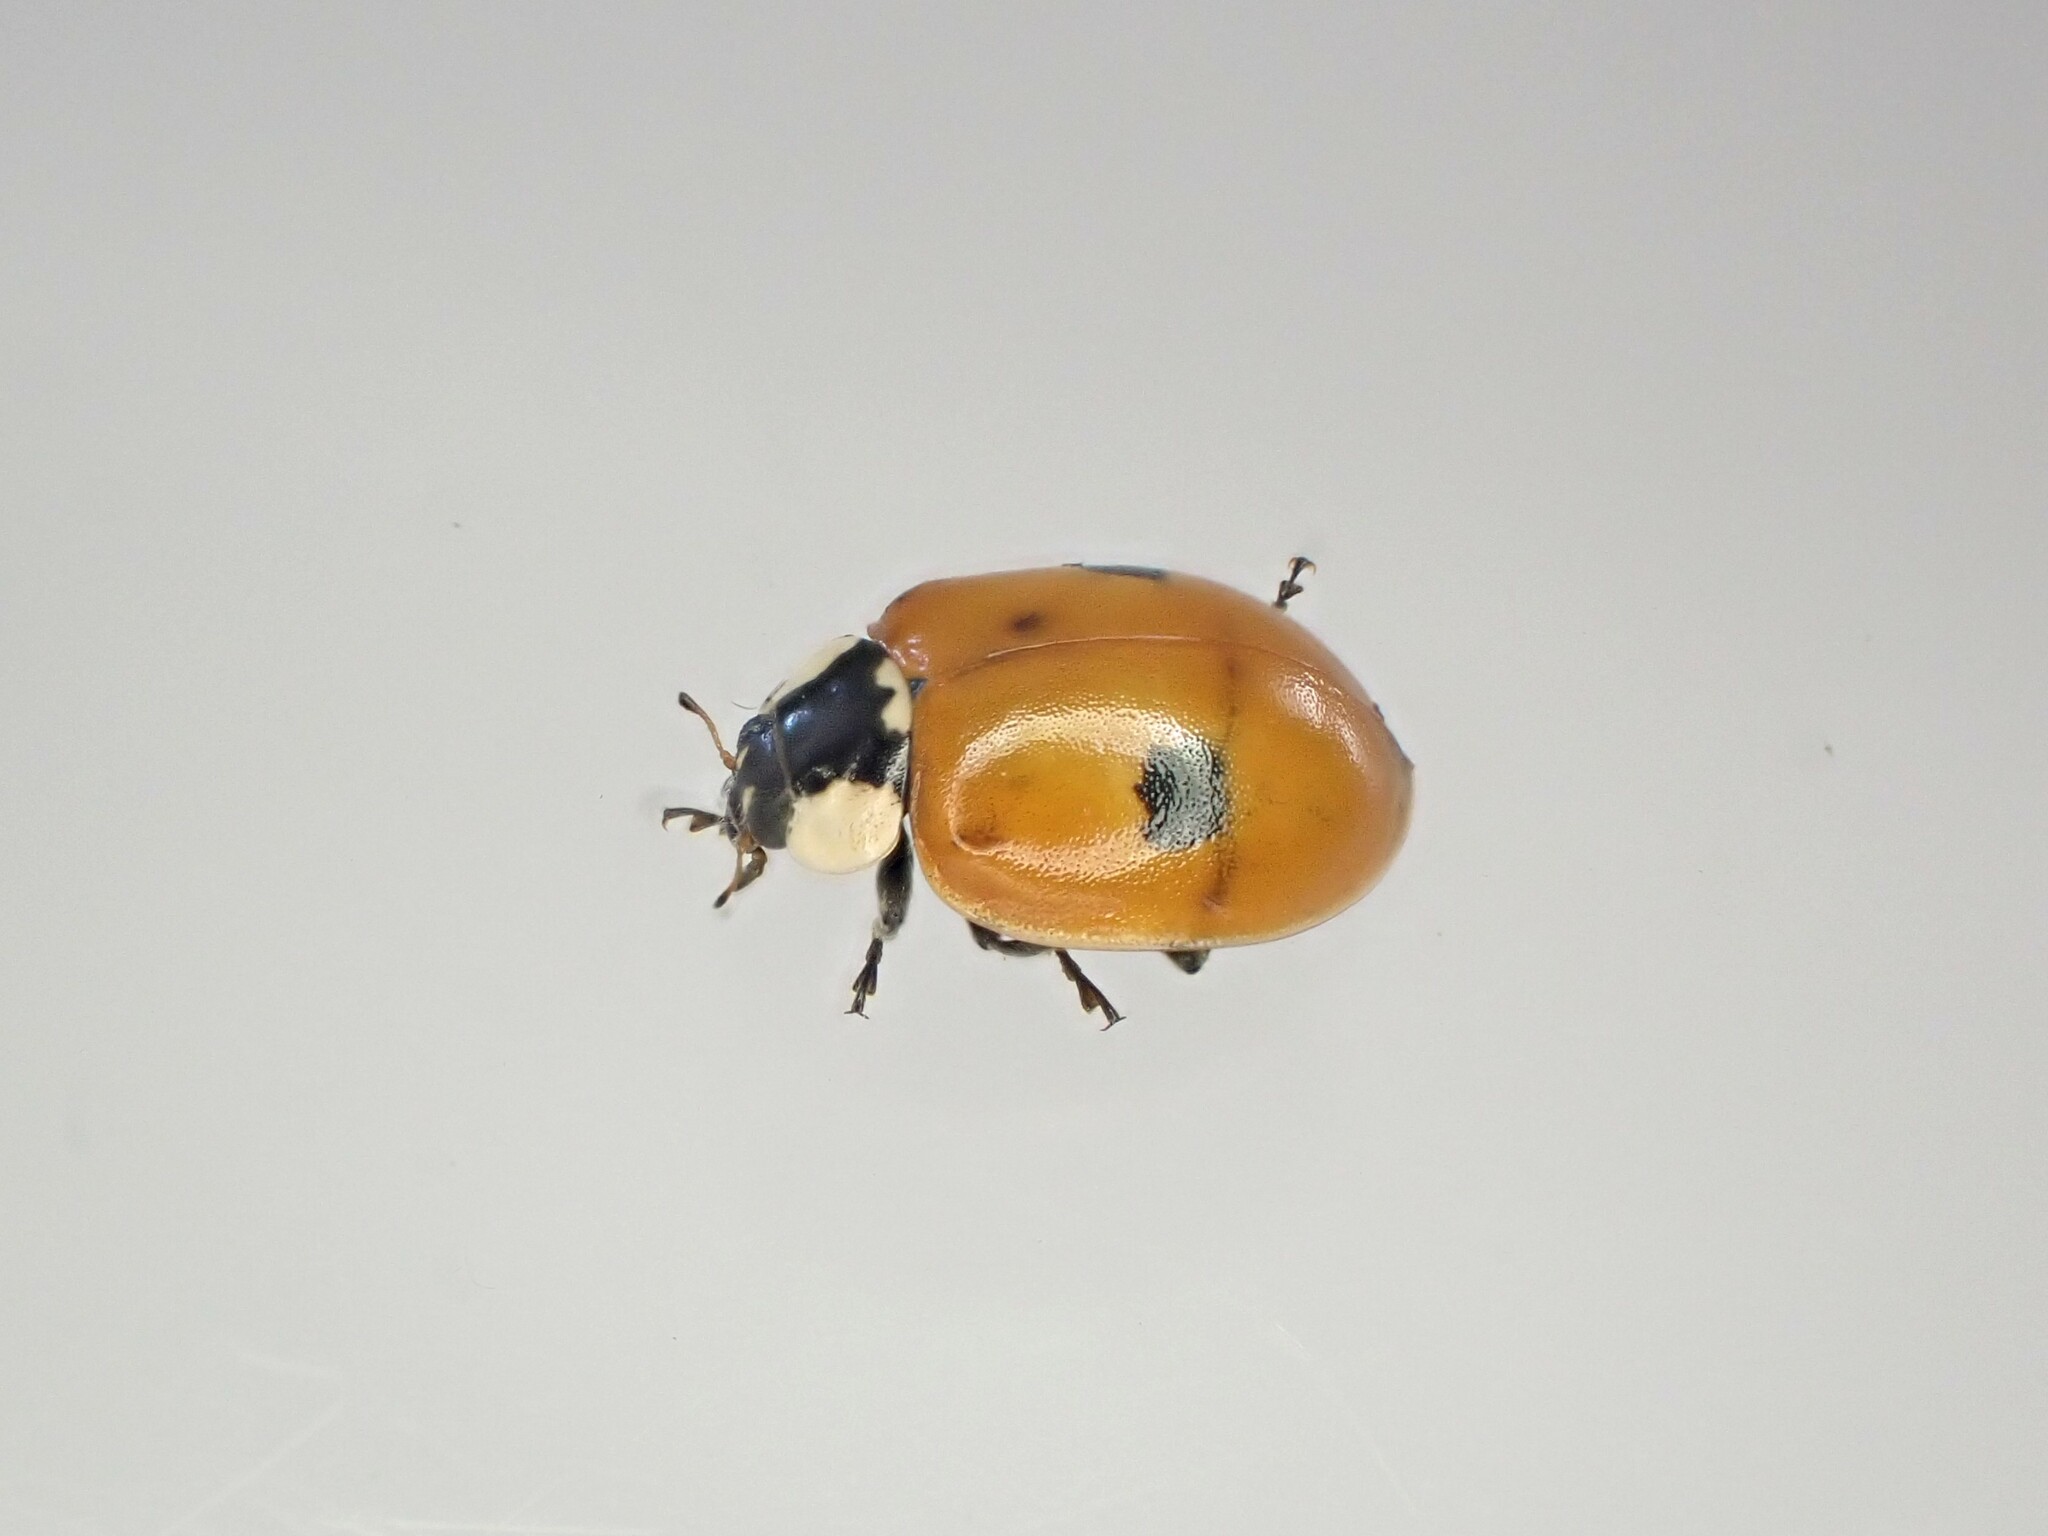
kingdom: Animalia
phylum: Arthropoda
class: Insecta
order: Coleoptera
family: Coccinellidae
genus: Adalia
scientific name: Adalia bipunctata
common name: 2-spot ladybird
